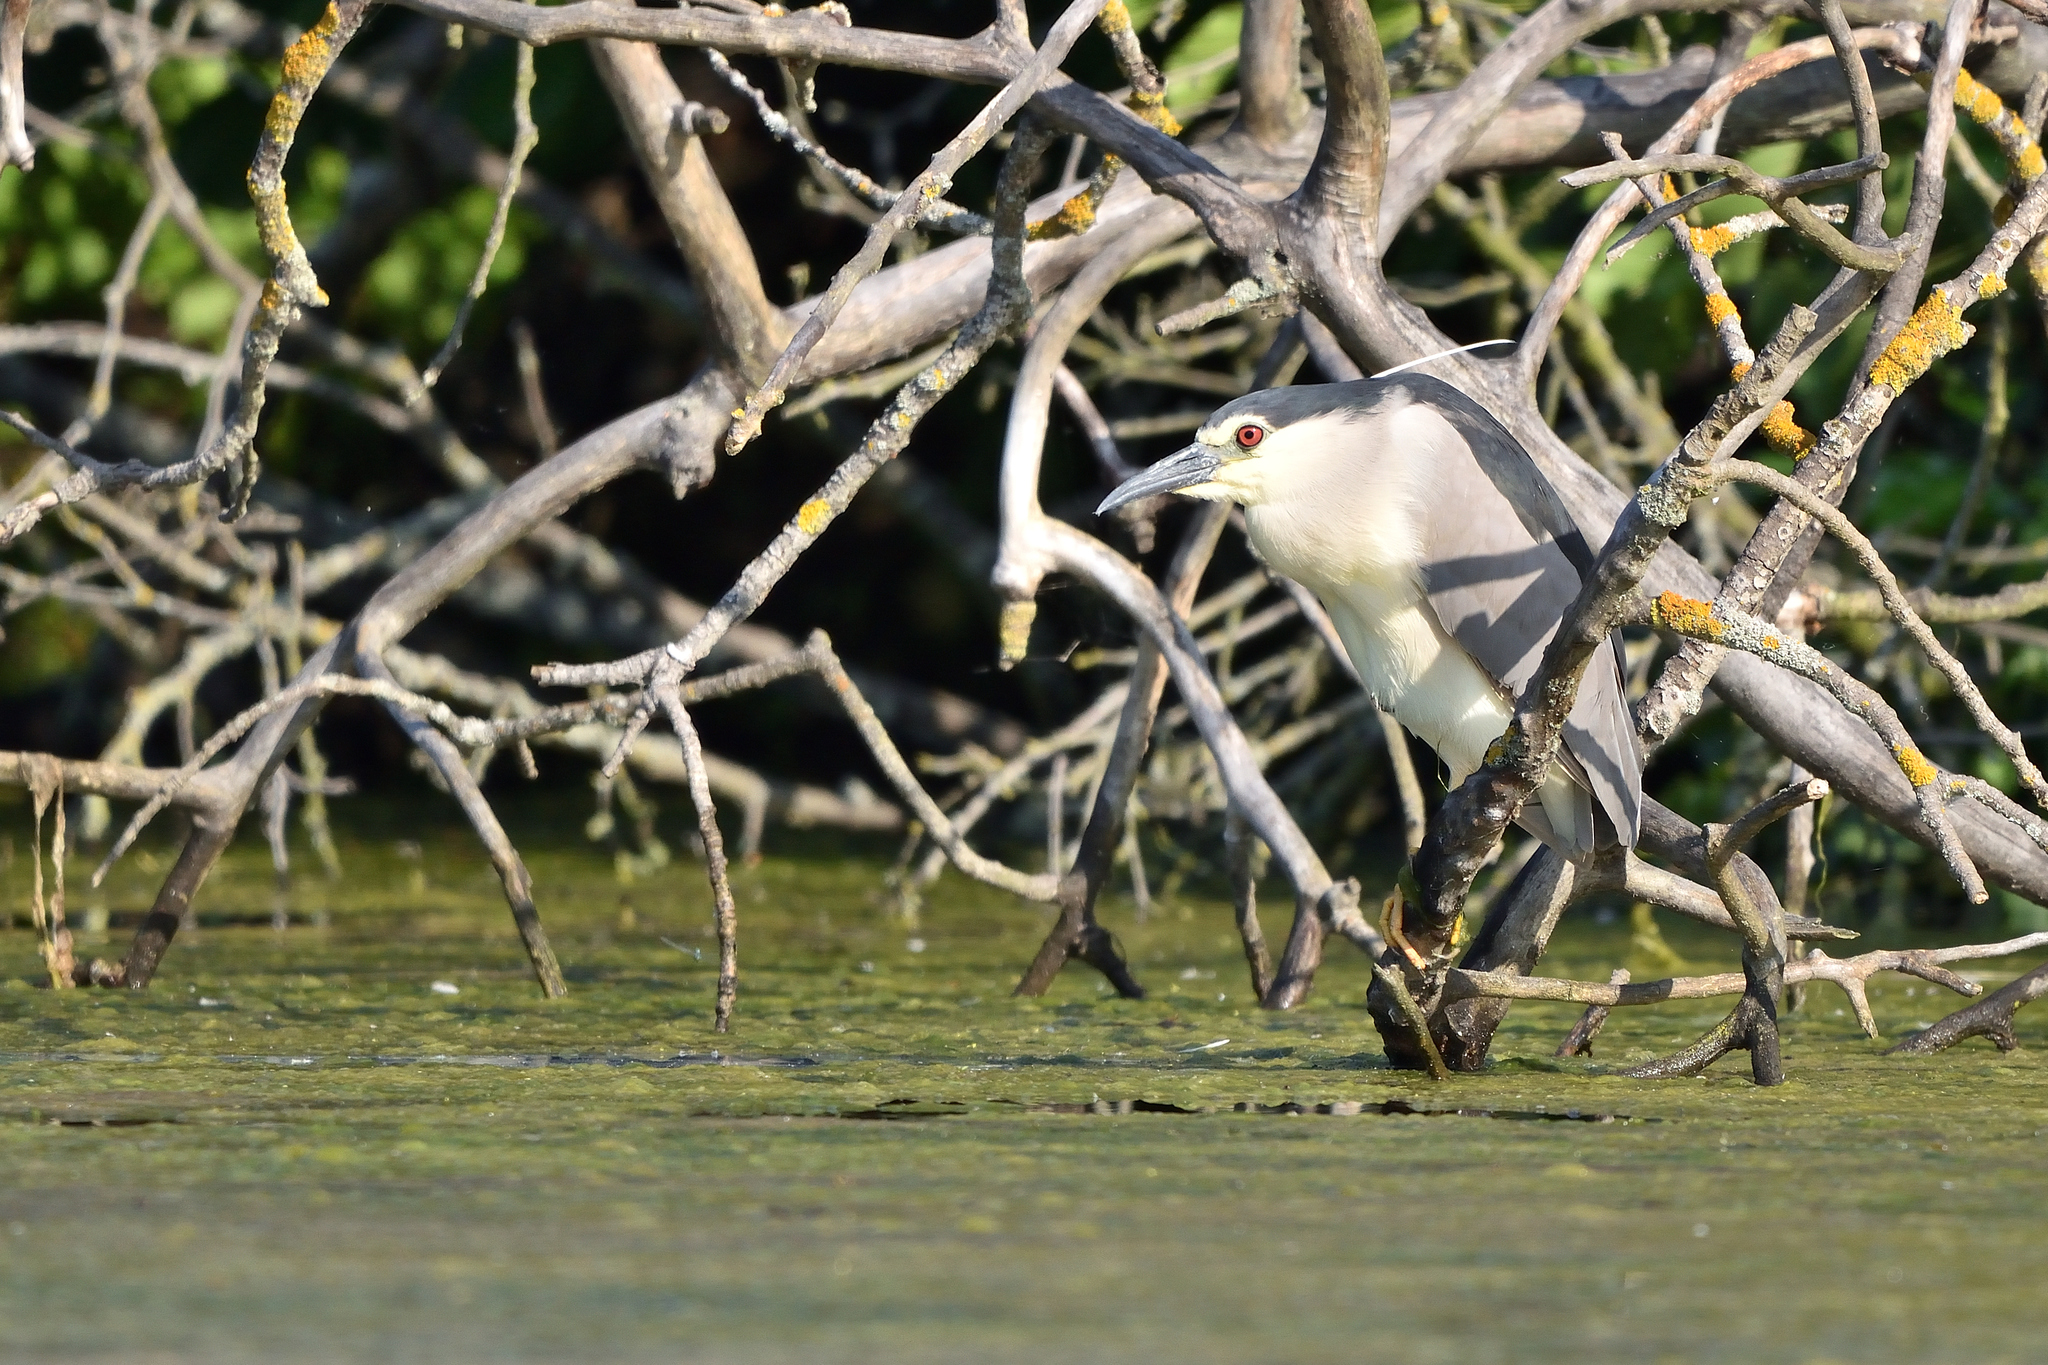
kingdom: Animalia
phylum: Chordata
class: Aves
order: Pelecaniformes
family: Ardeidae
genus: Nycticorax
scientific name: Nycticorax nycticorax
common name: Black-crowned night heron
